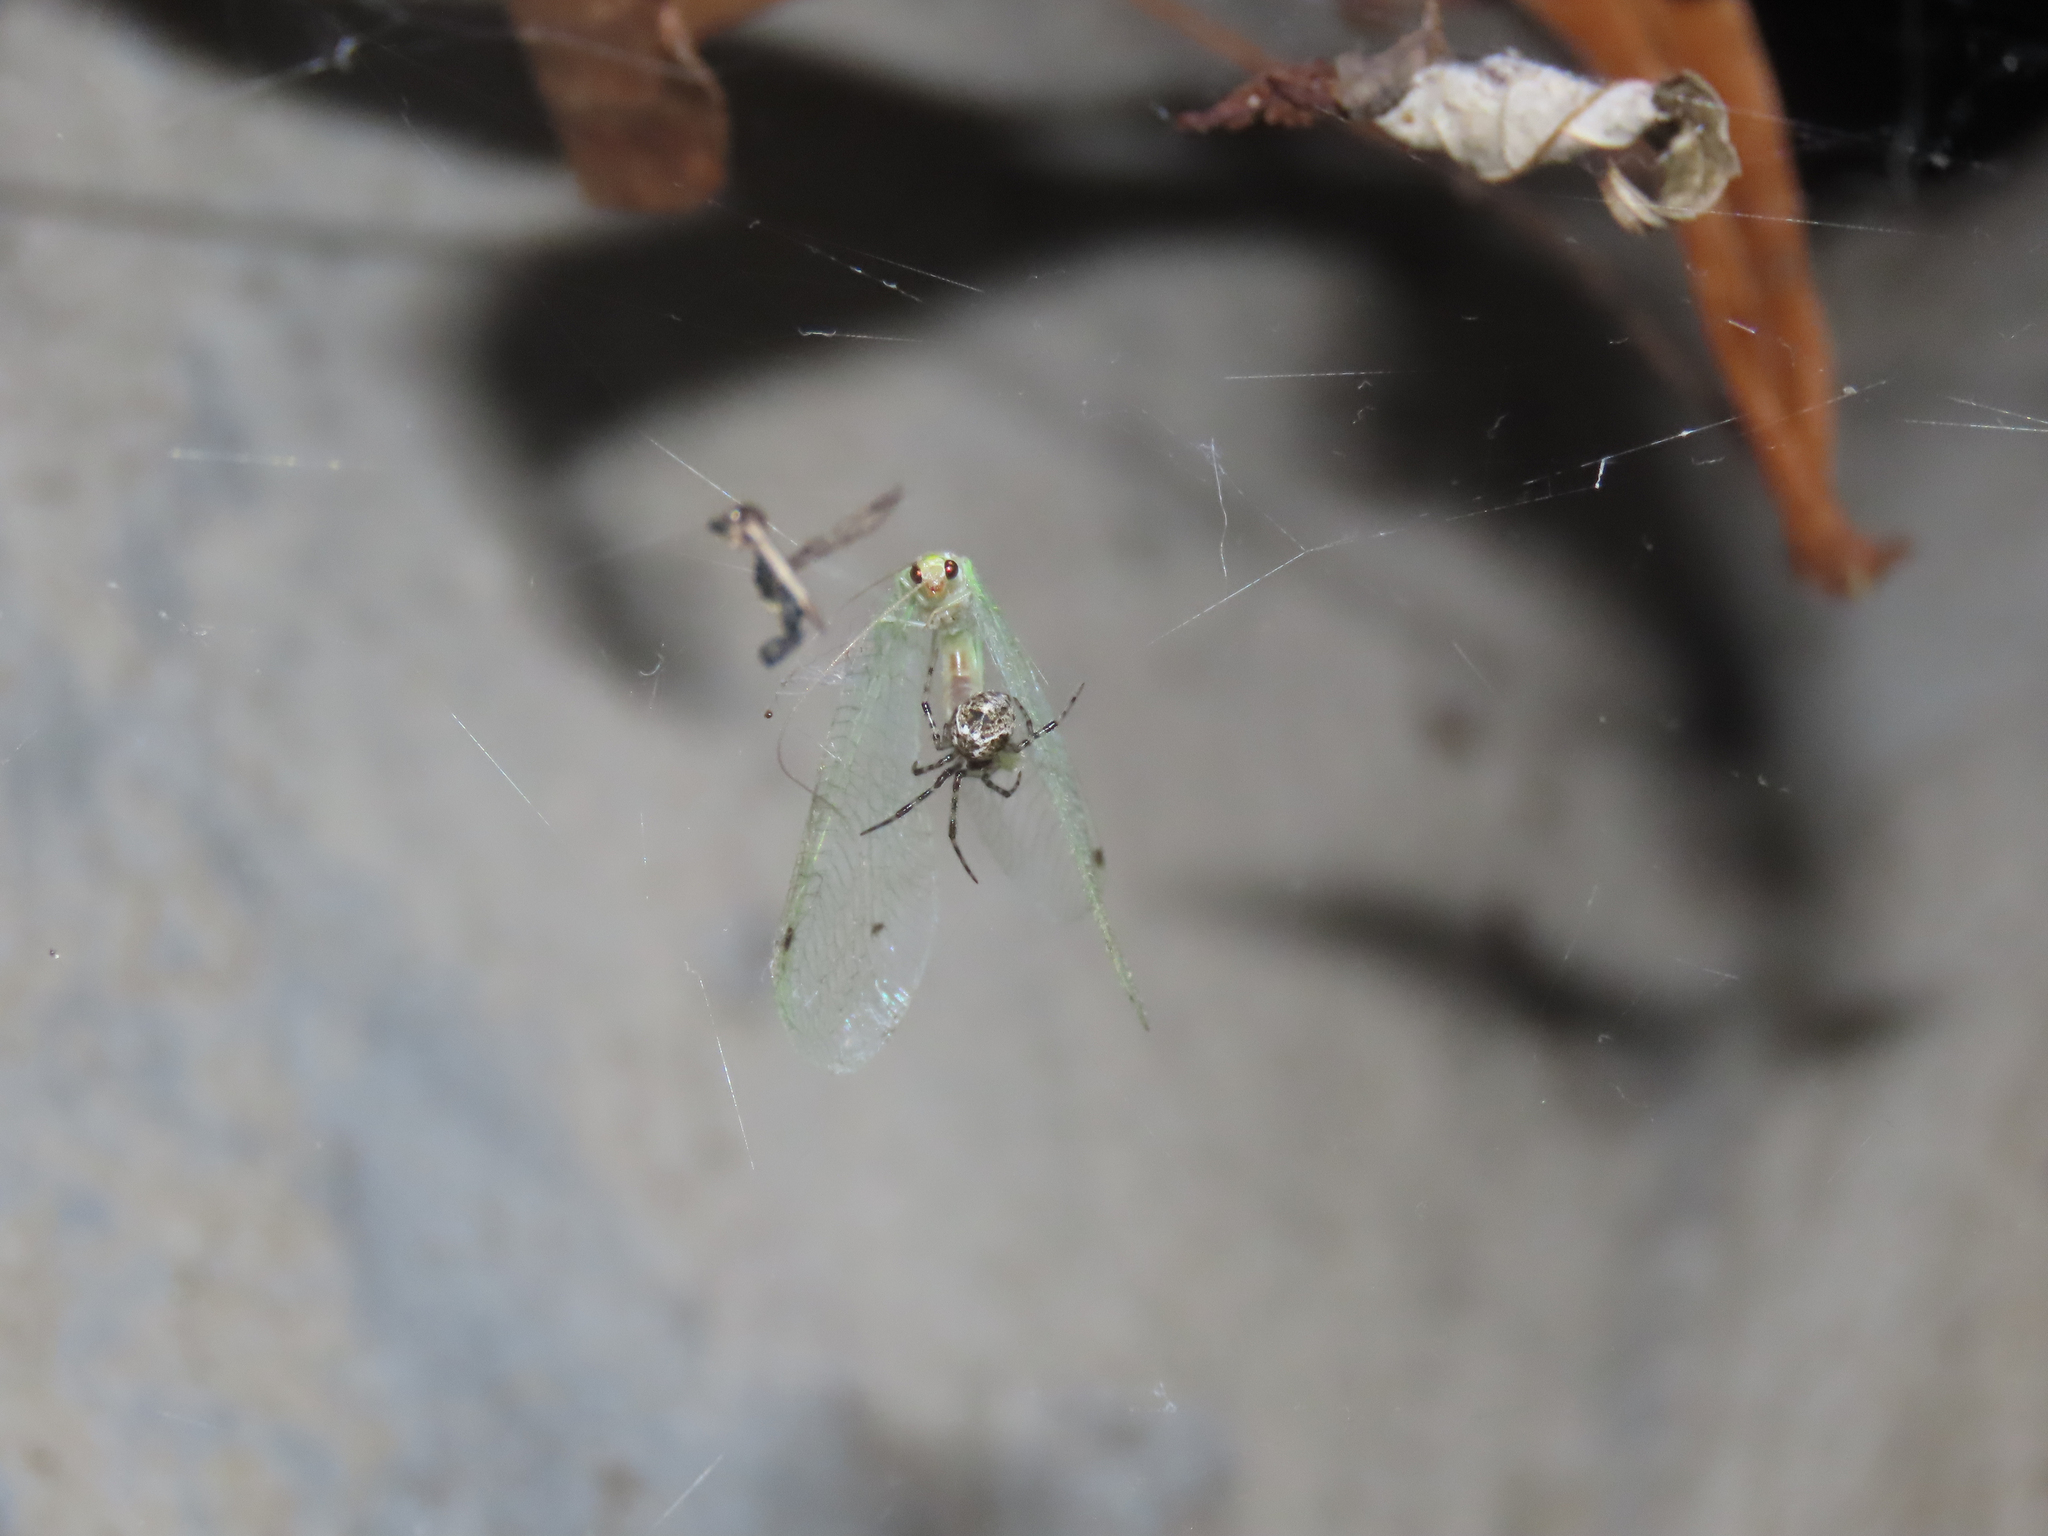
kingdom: Animalia
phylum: Arthropoda
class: Arachnida
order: Araneae
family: Theridiidae
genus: Parasteatoda
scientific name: Parasteatoda tepidariorum
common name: Common house spider
